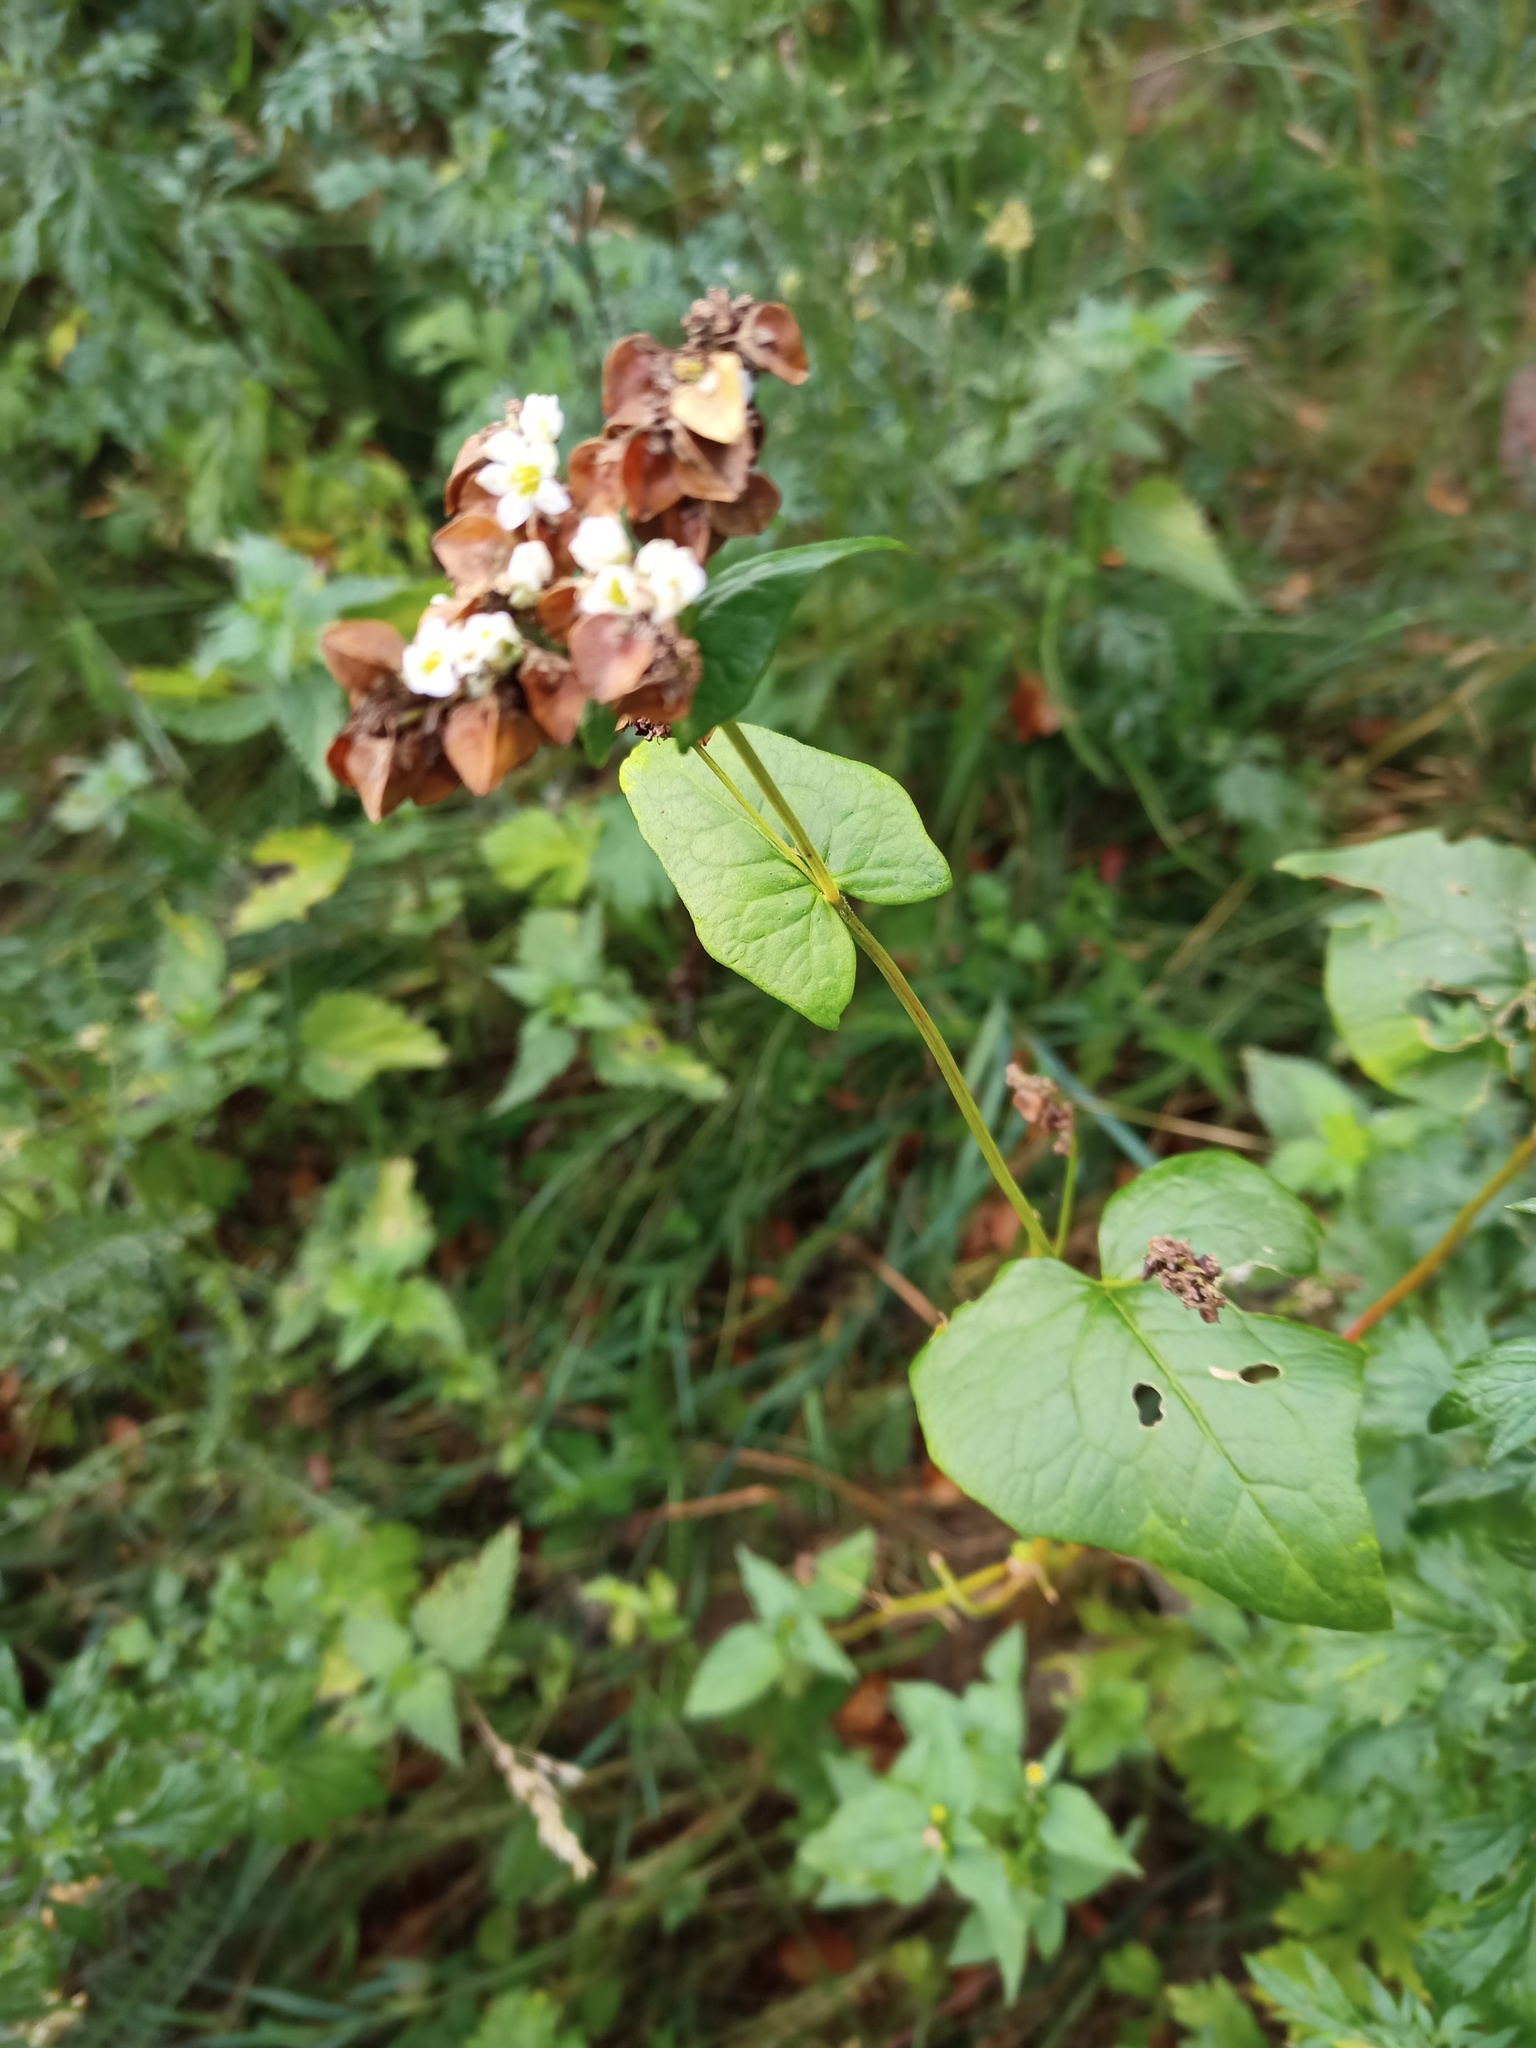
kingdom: Plantae
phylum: Tracheophyta
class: Magnoliopsida
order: Caryophyllales
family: Polygonaceae
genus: Fagopyrum
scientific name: Fagopyrum esculentum
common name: Buckwheat
